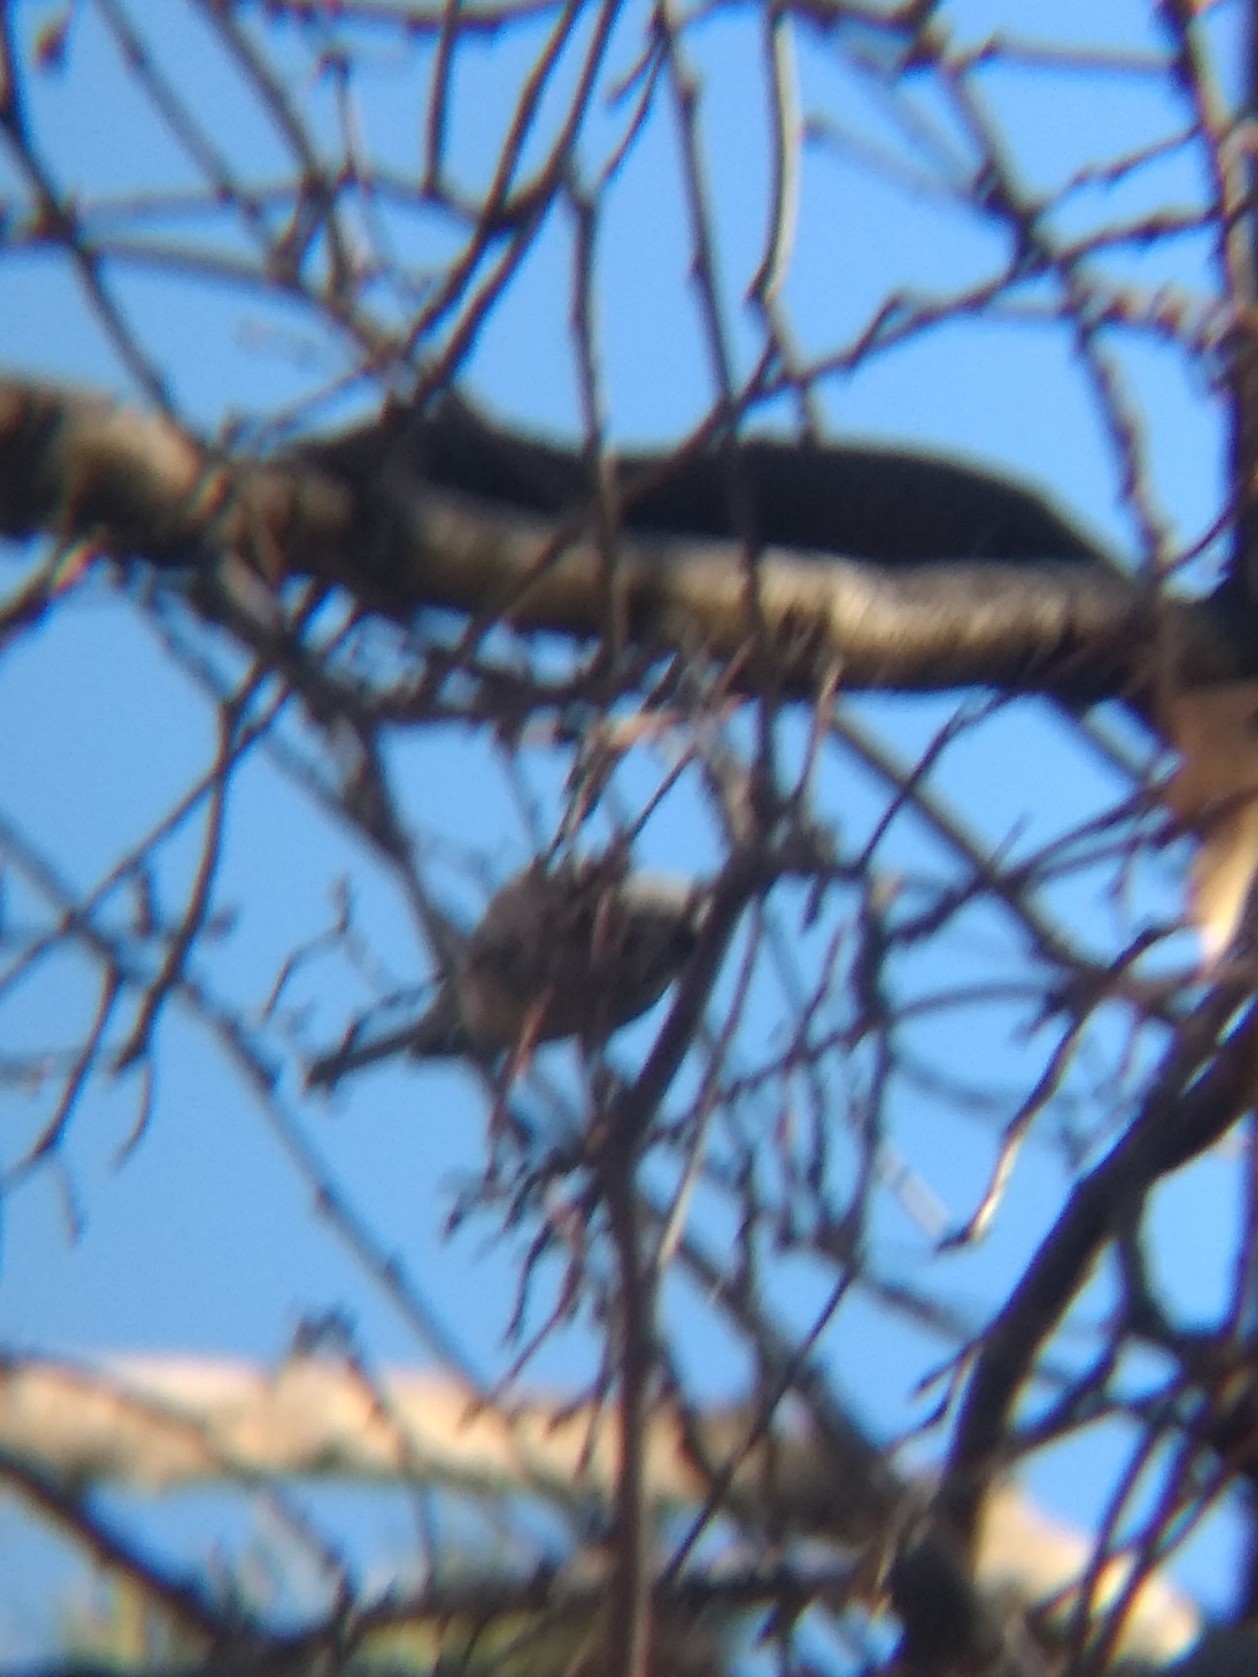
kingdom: Animalia
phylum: Chordata
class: Aves
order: Passeriformes
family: Paridae
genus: Poecile
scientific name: Poecile gambeli
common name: Mountain chickadee
